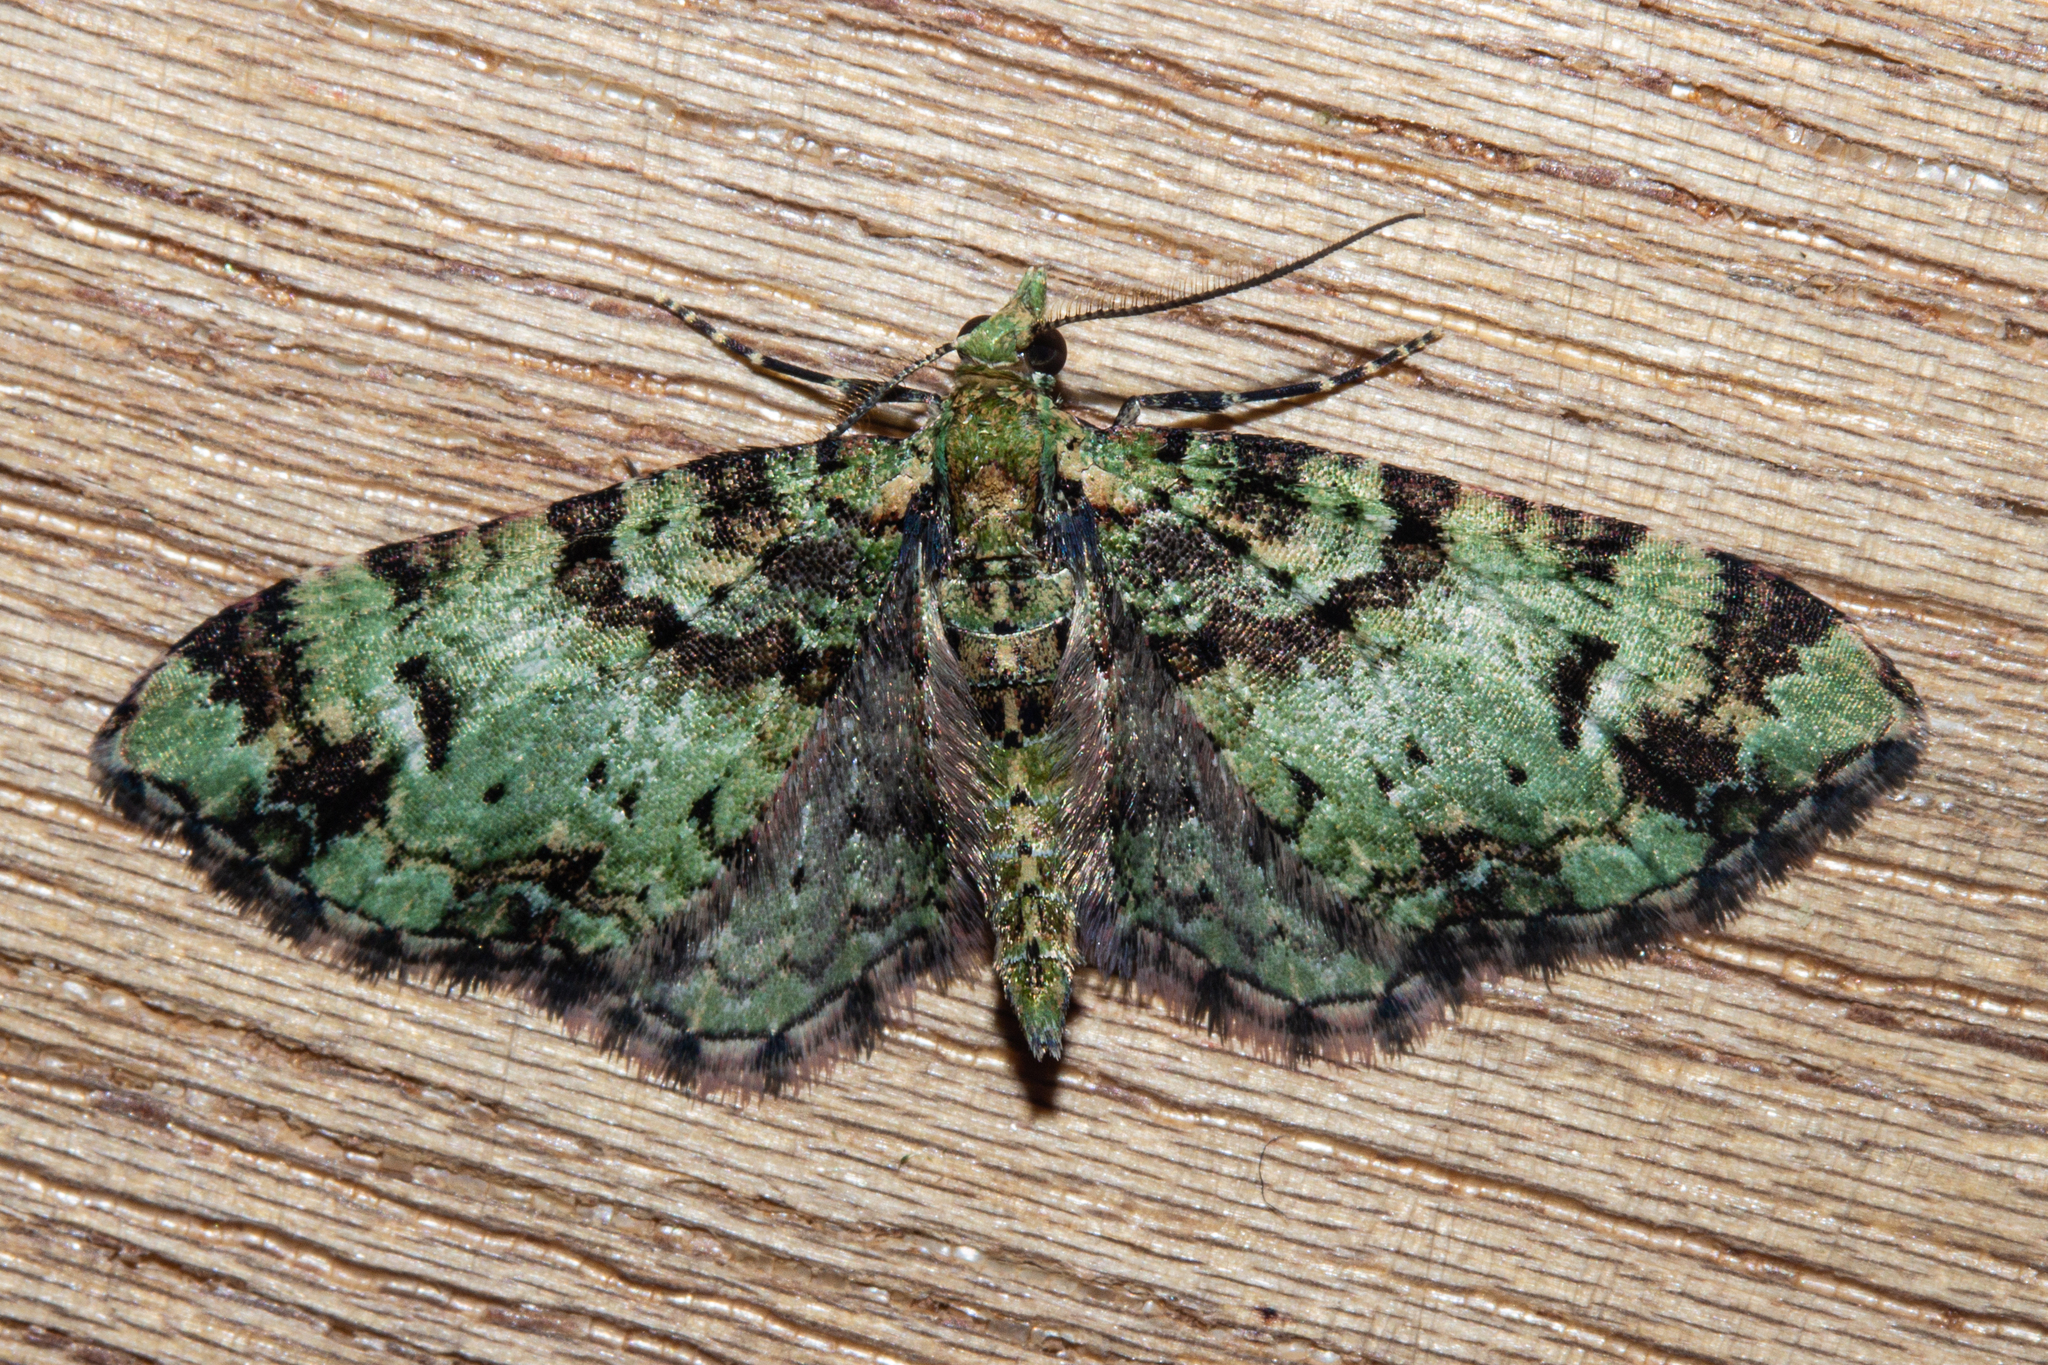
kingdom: Animalia
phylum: Arthropoda
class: Insecta
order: Lepidoptera
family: Geometridae
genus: Pasiphila
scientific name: Pasiphila bilineolata
